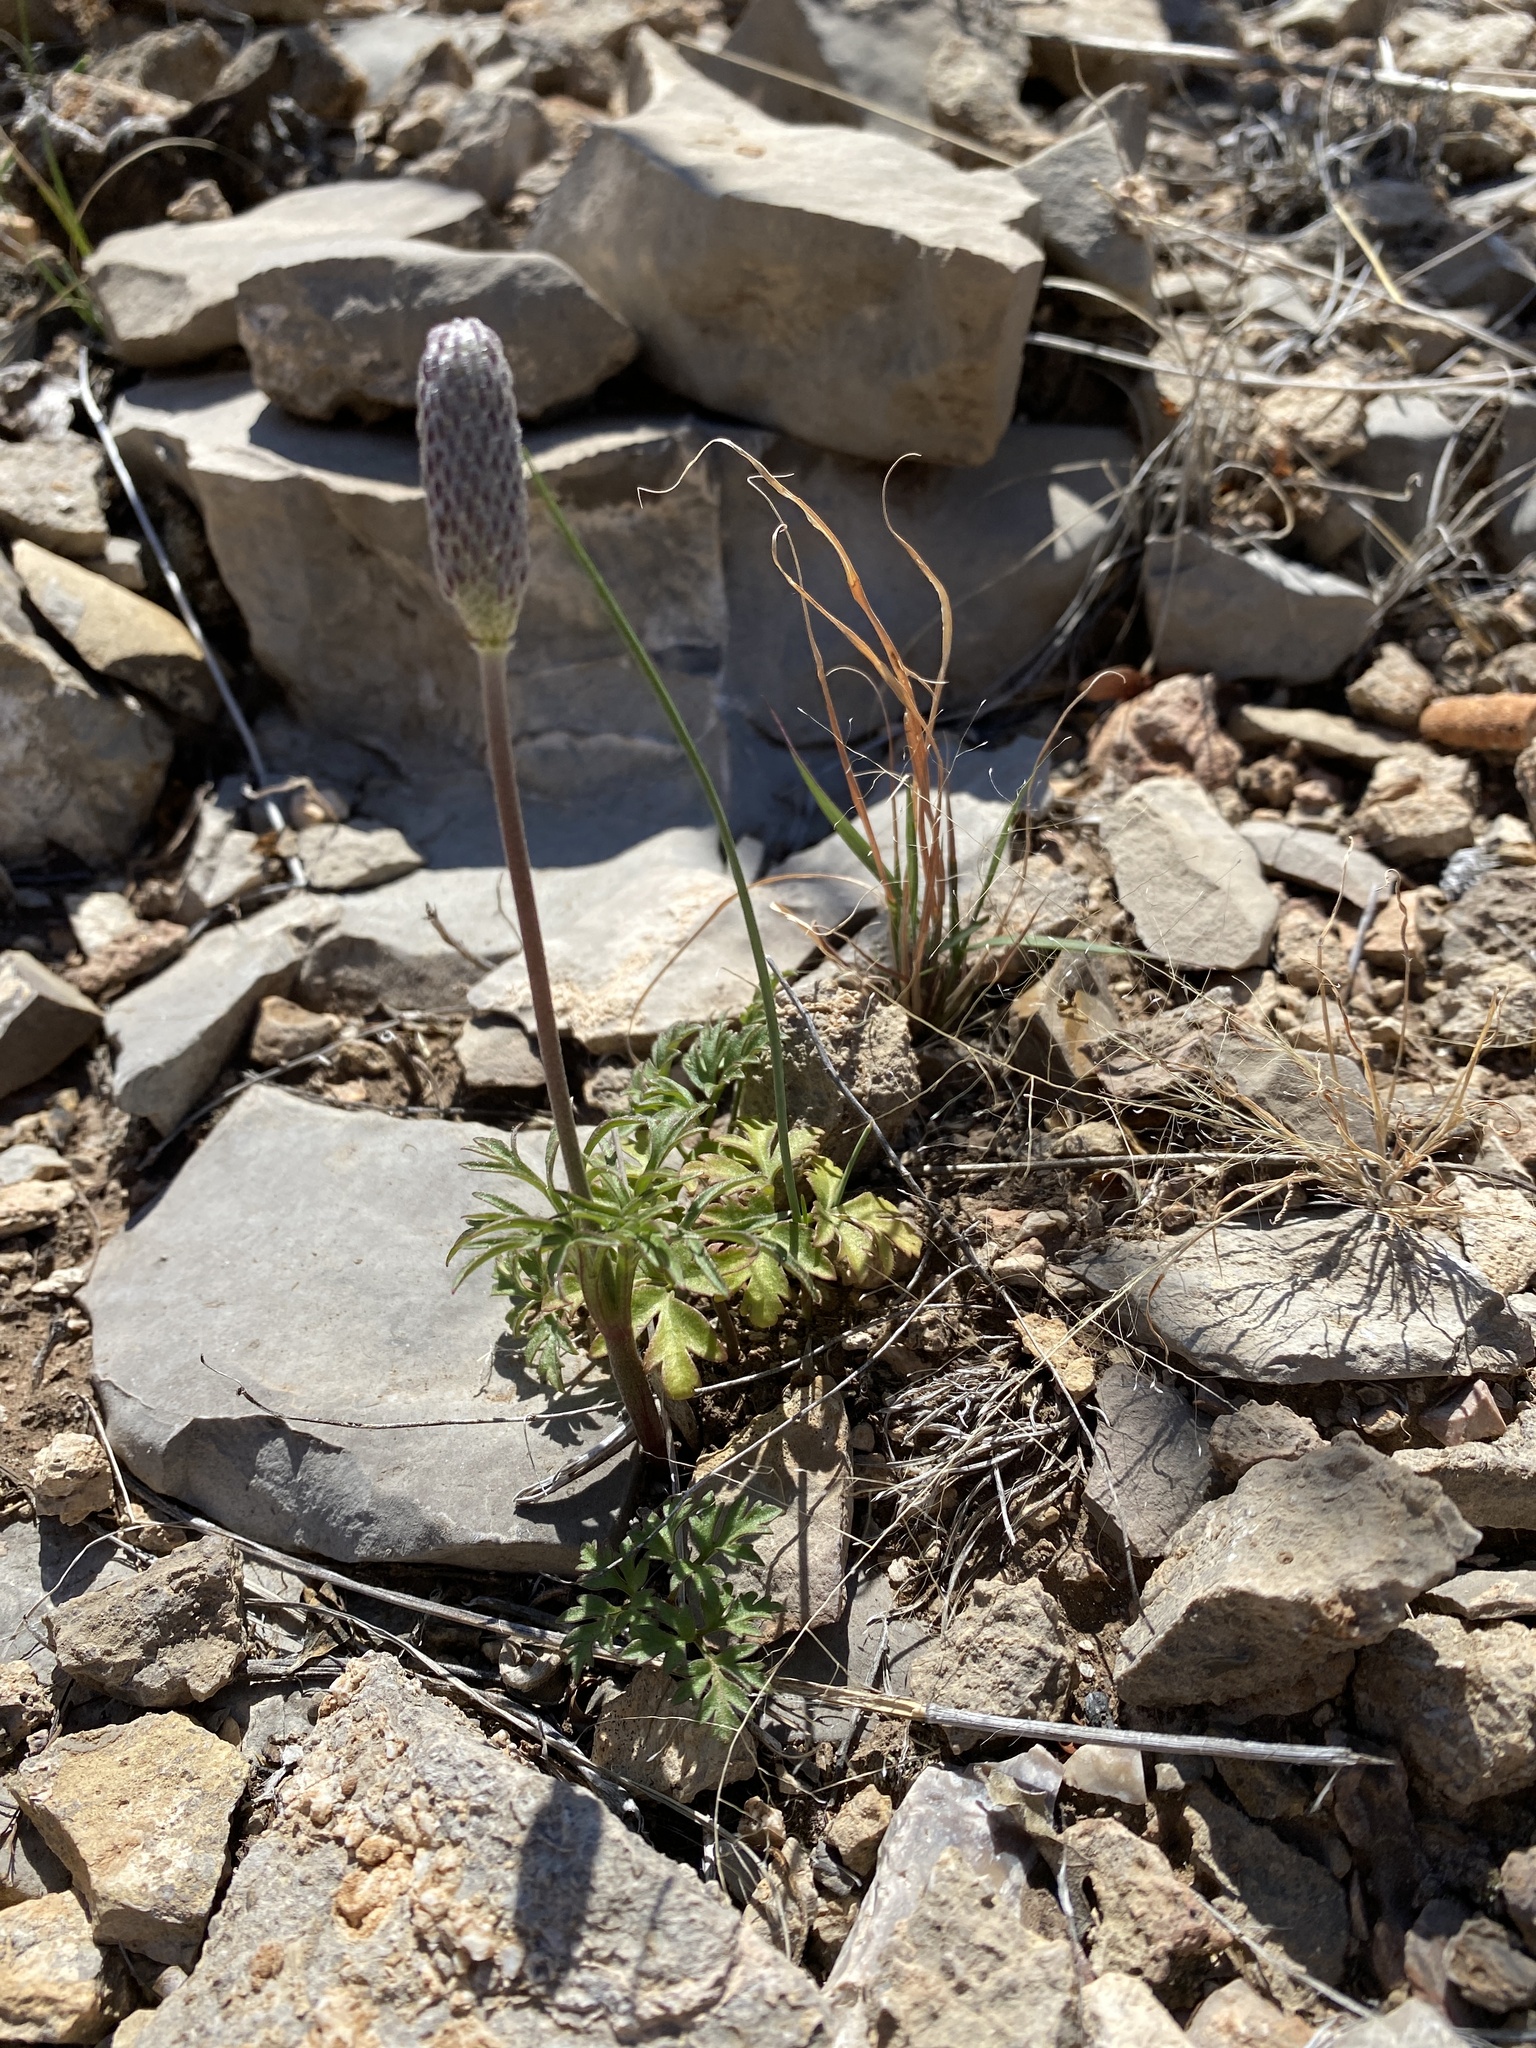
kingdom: Plantae
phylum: Tracheophyta
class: Magnoliopsida
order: Ranunculales
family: Ranunculaceae
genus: Anemone
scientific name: Anemone tuberosa
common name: Desert anemone
